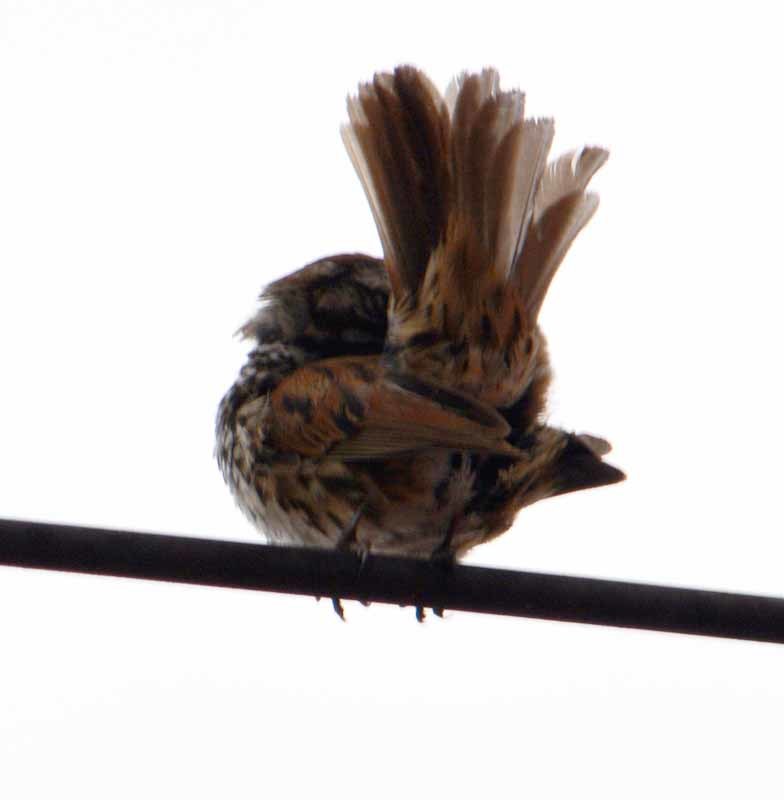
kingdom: Animalia
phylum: Chordata
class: Aves
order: Passeriformes
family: Passerellidae
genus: Melospiza
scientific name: Melospiza melodia
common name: Song sparrow
